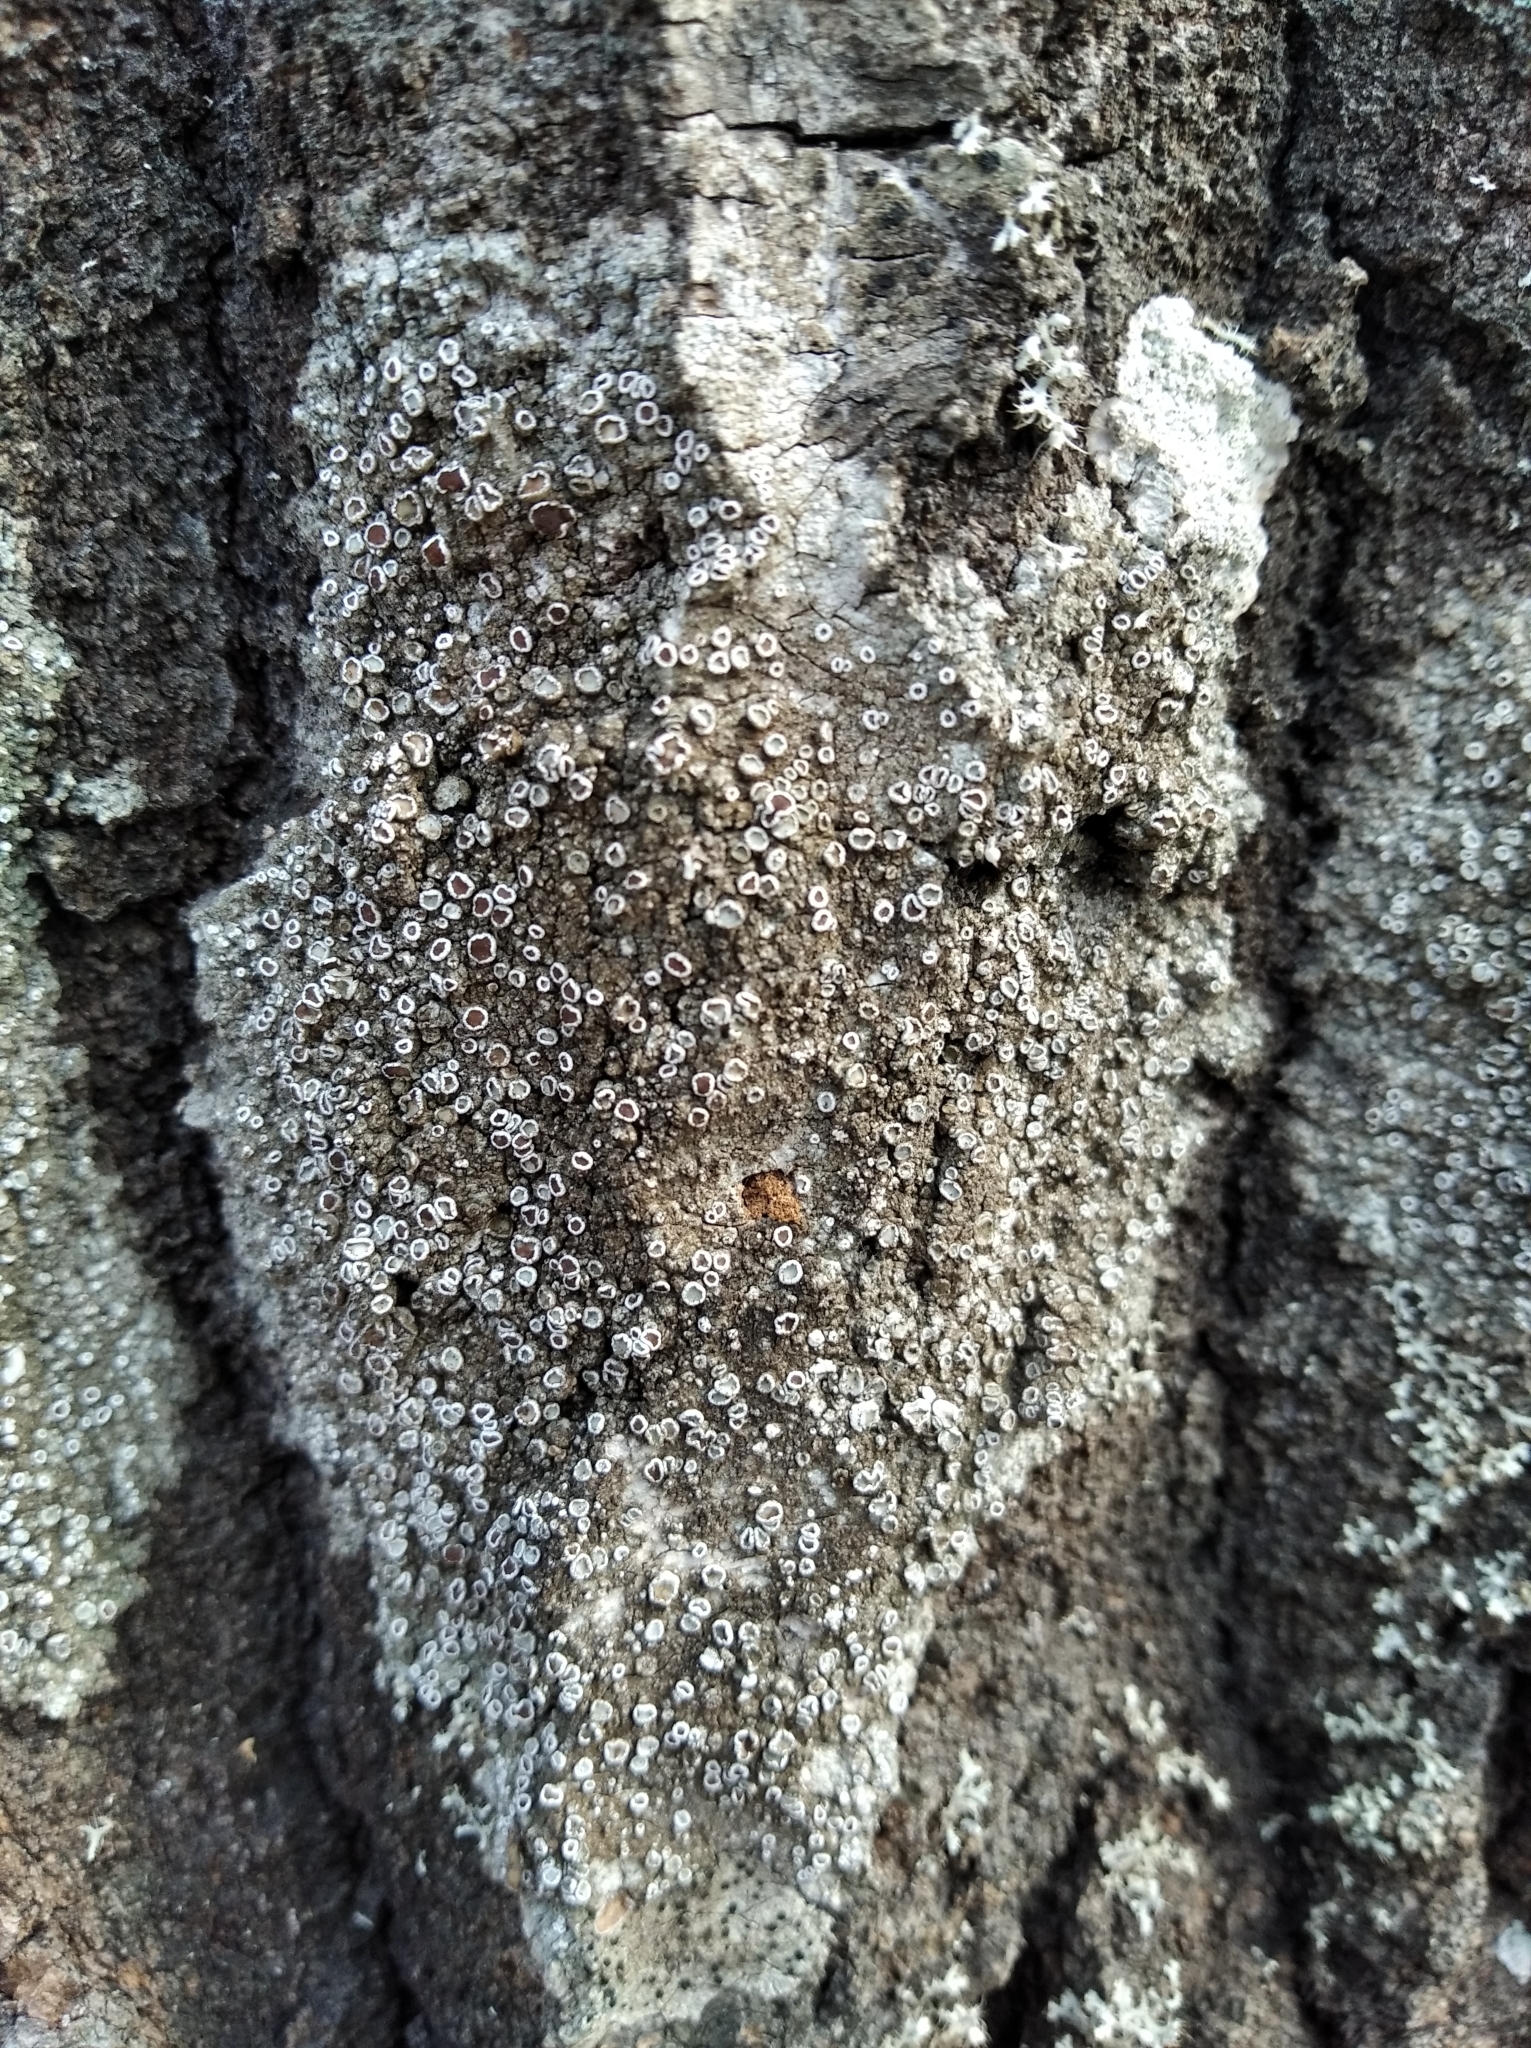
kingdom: Fungi
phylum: Ascomycota
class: Lecanoromycetes
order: Lecanorales
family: Lecanoraceae
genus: Lecanora
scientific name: Lecanora argentata
